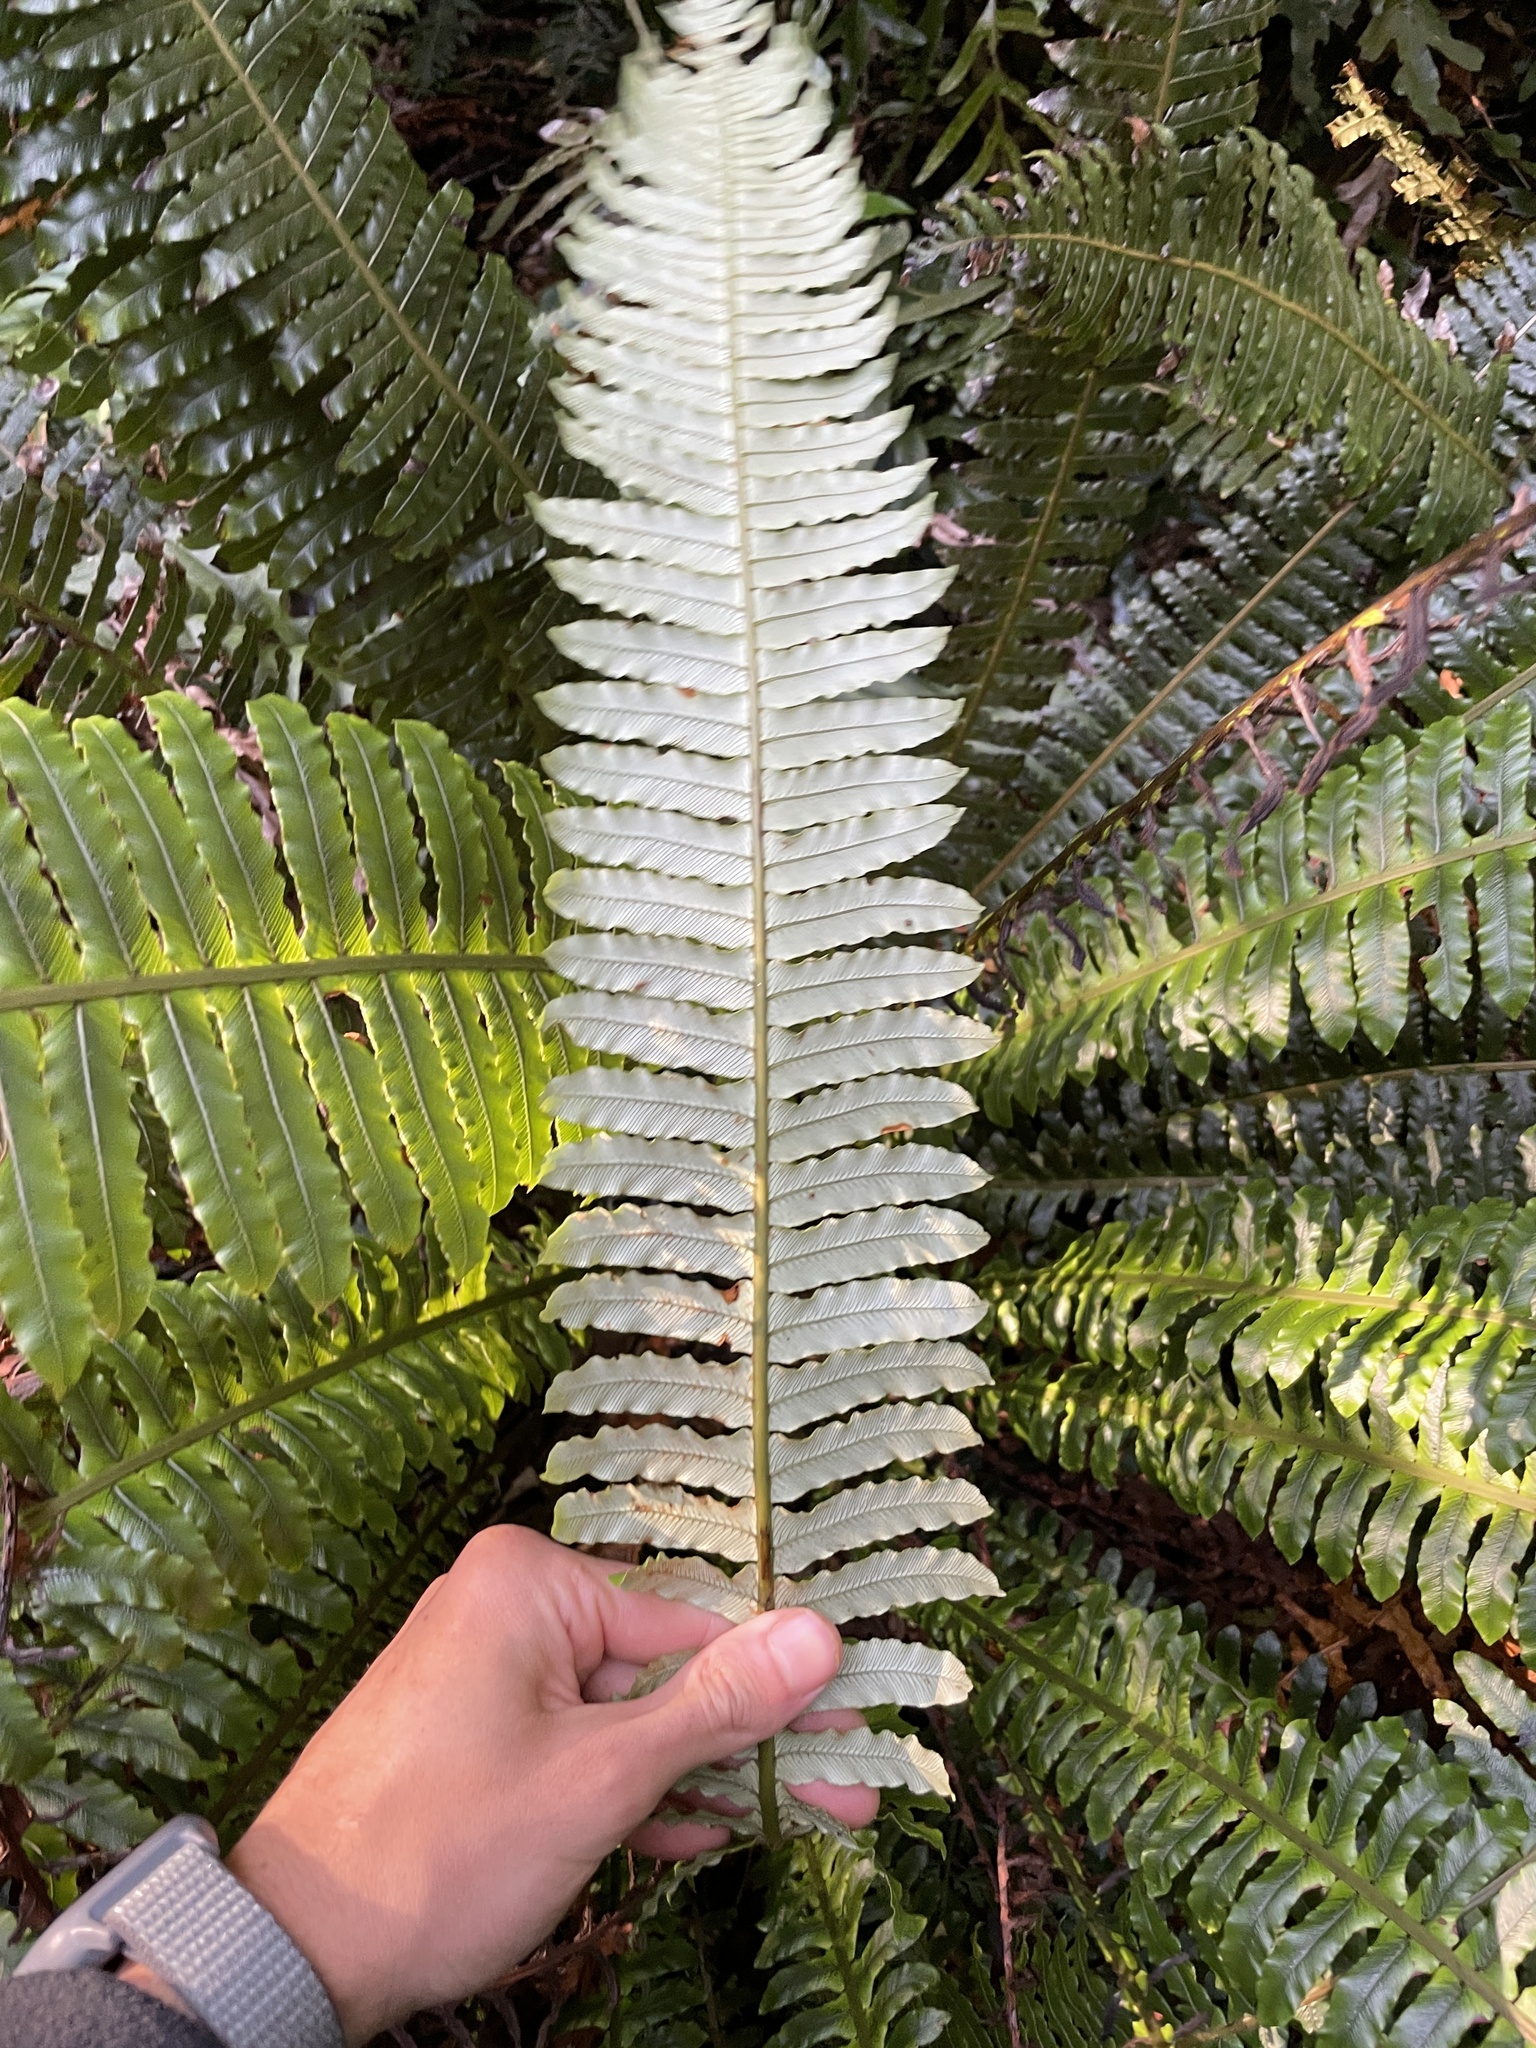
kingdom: Plantae
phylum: Tracheophyta
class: Polypodiopsida
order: Polypodiales
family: Blechnaceae
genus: Lomaria
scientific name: Lomaria discolor
